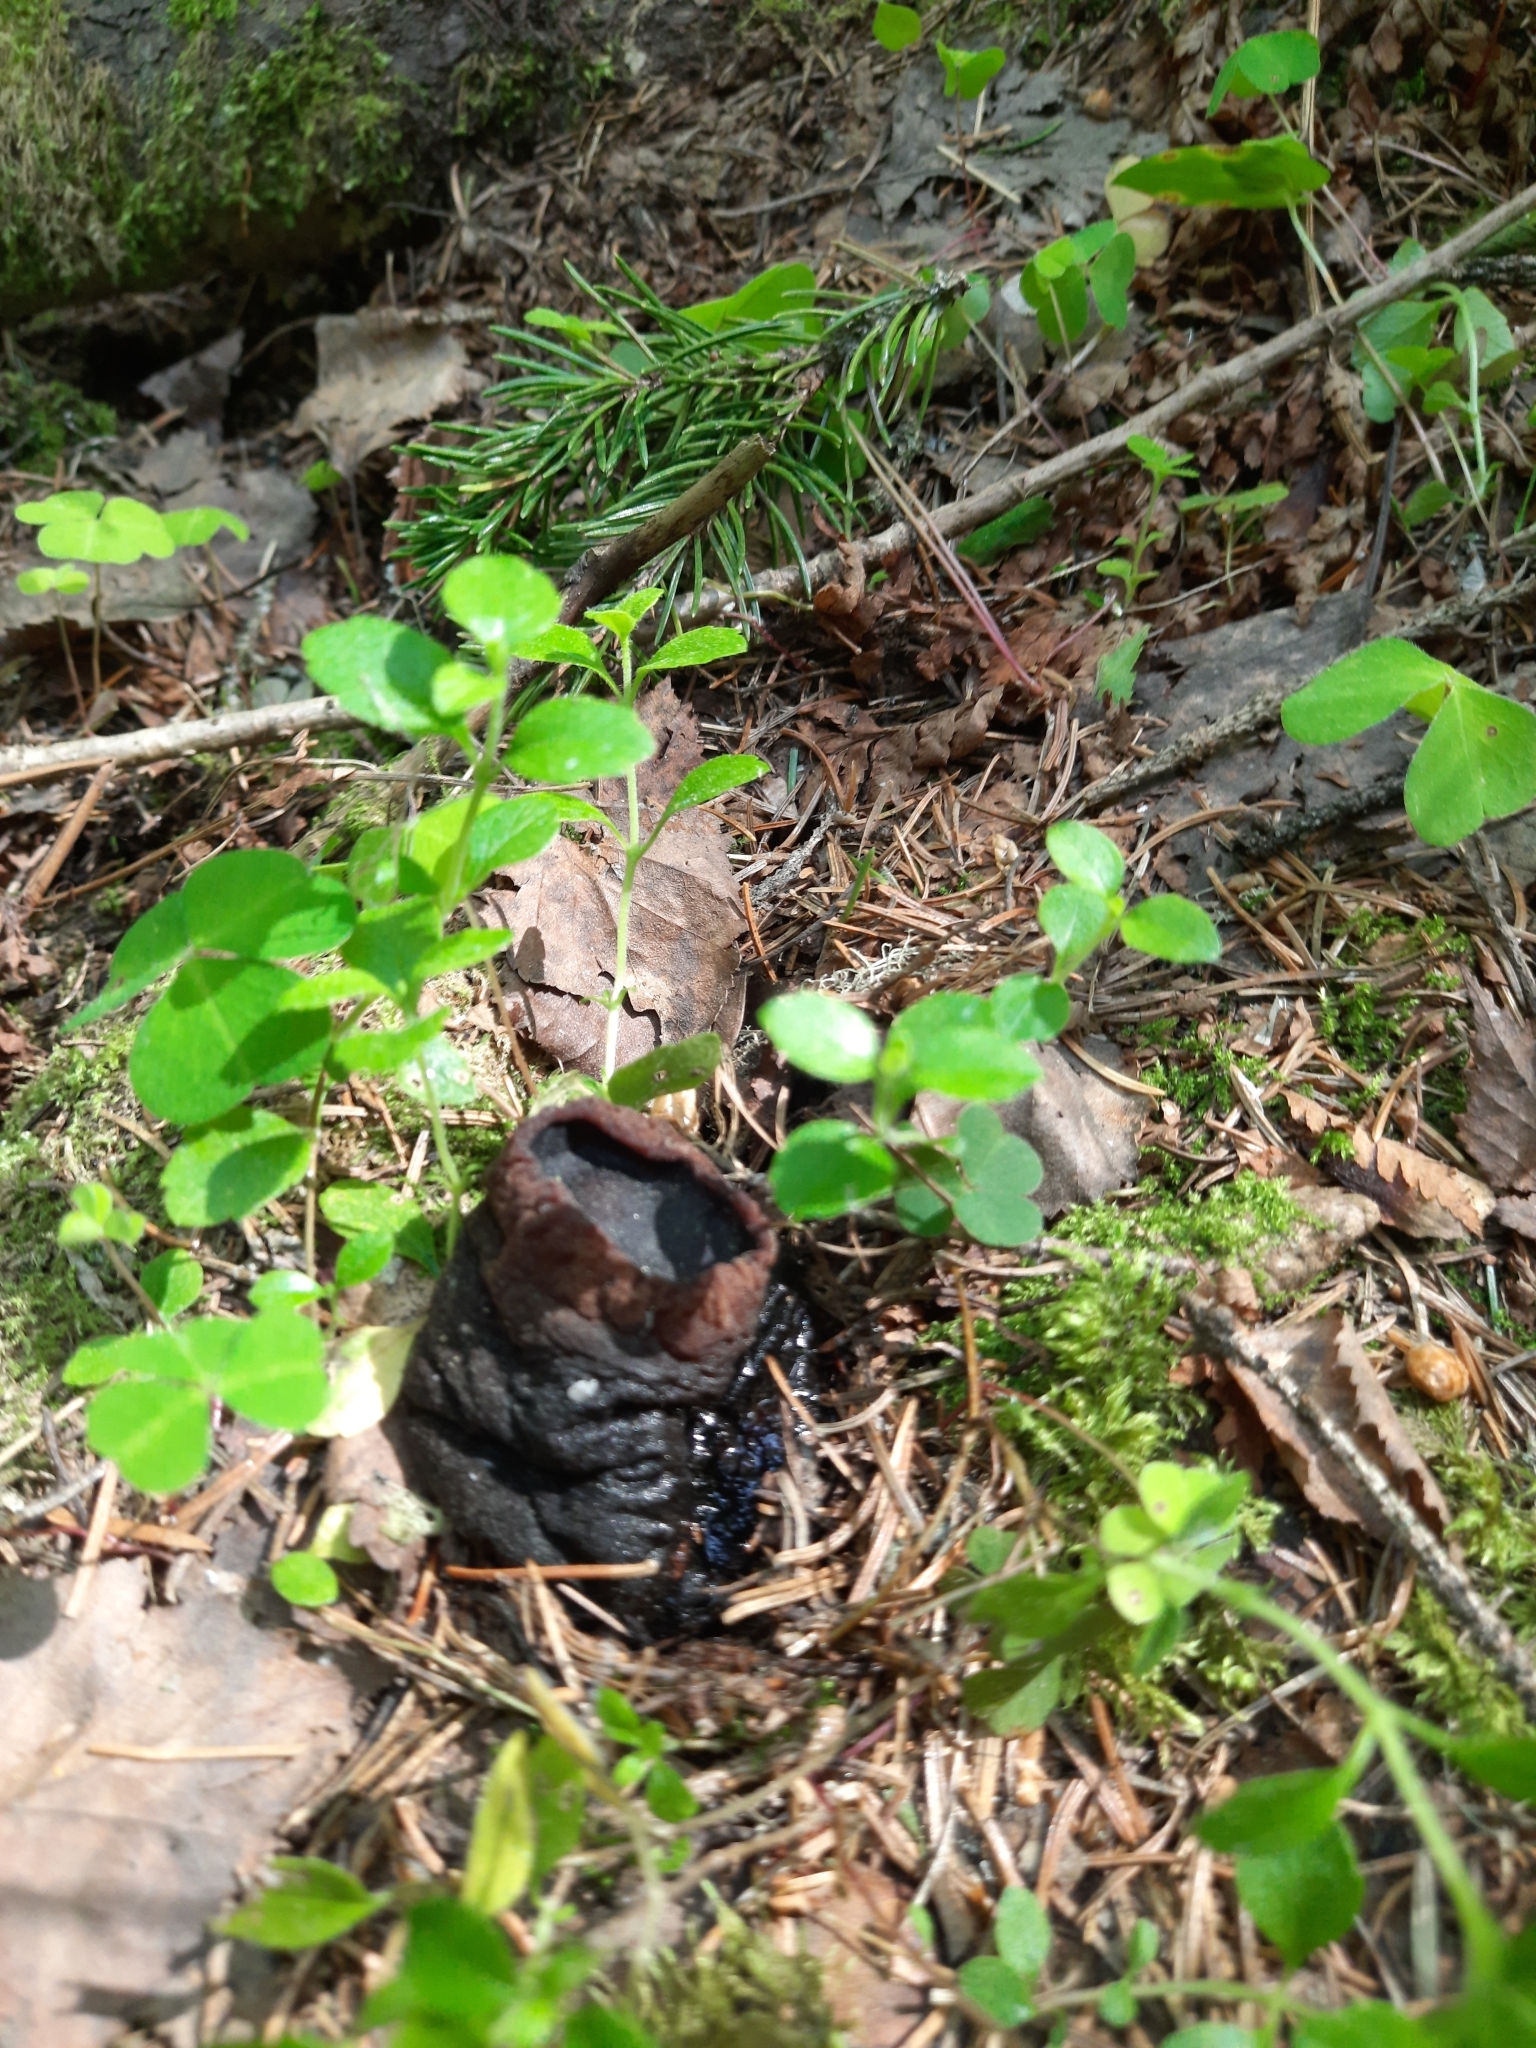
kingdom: Fungi
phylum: Ascomycota
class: Pezizomycetes
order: Pezizales
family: Sarcosomataceae
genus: Sarcosoma
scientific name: Sarcosoma globosum
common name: Charred-pancake cup
